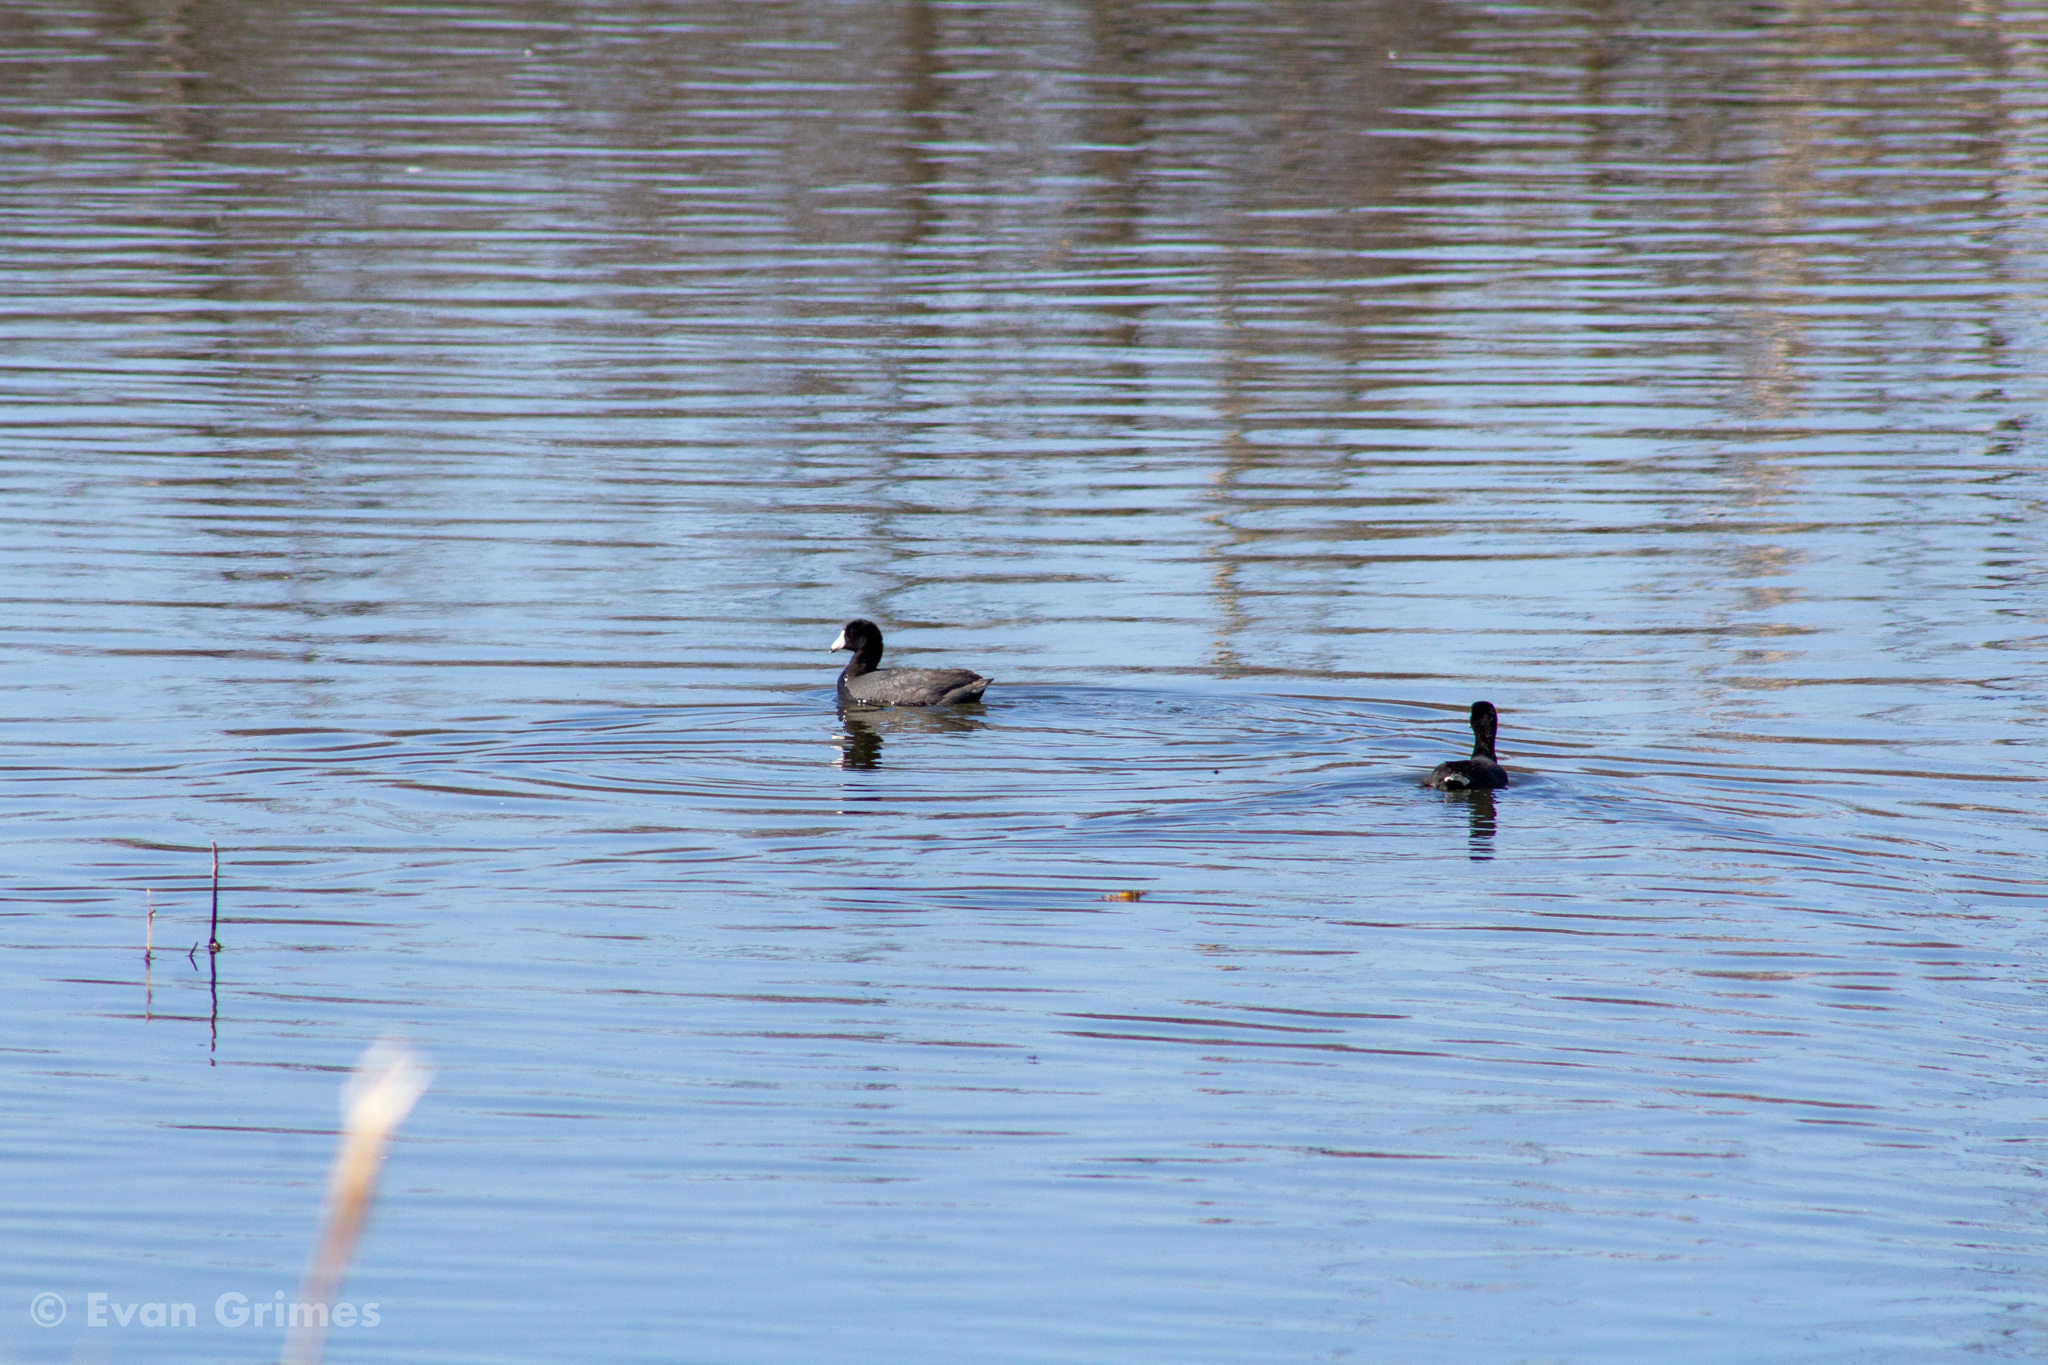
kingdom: Animalia
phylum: Chordata
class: Aves
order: Gruiformes
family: Rallidae
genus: Fulica
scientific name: Fulica americana
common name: American coot
